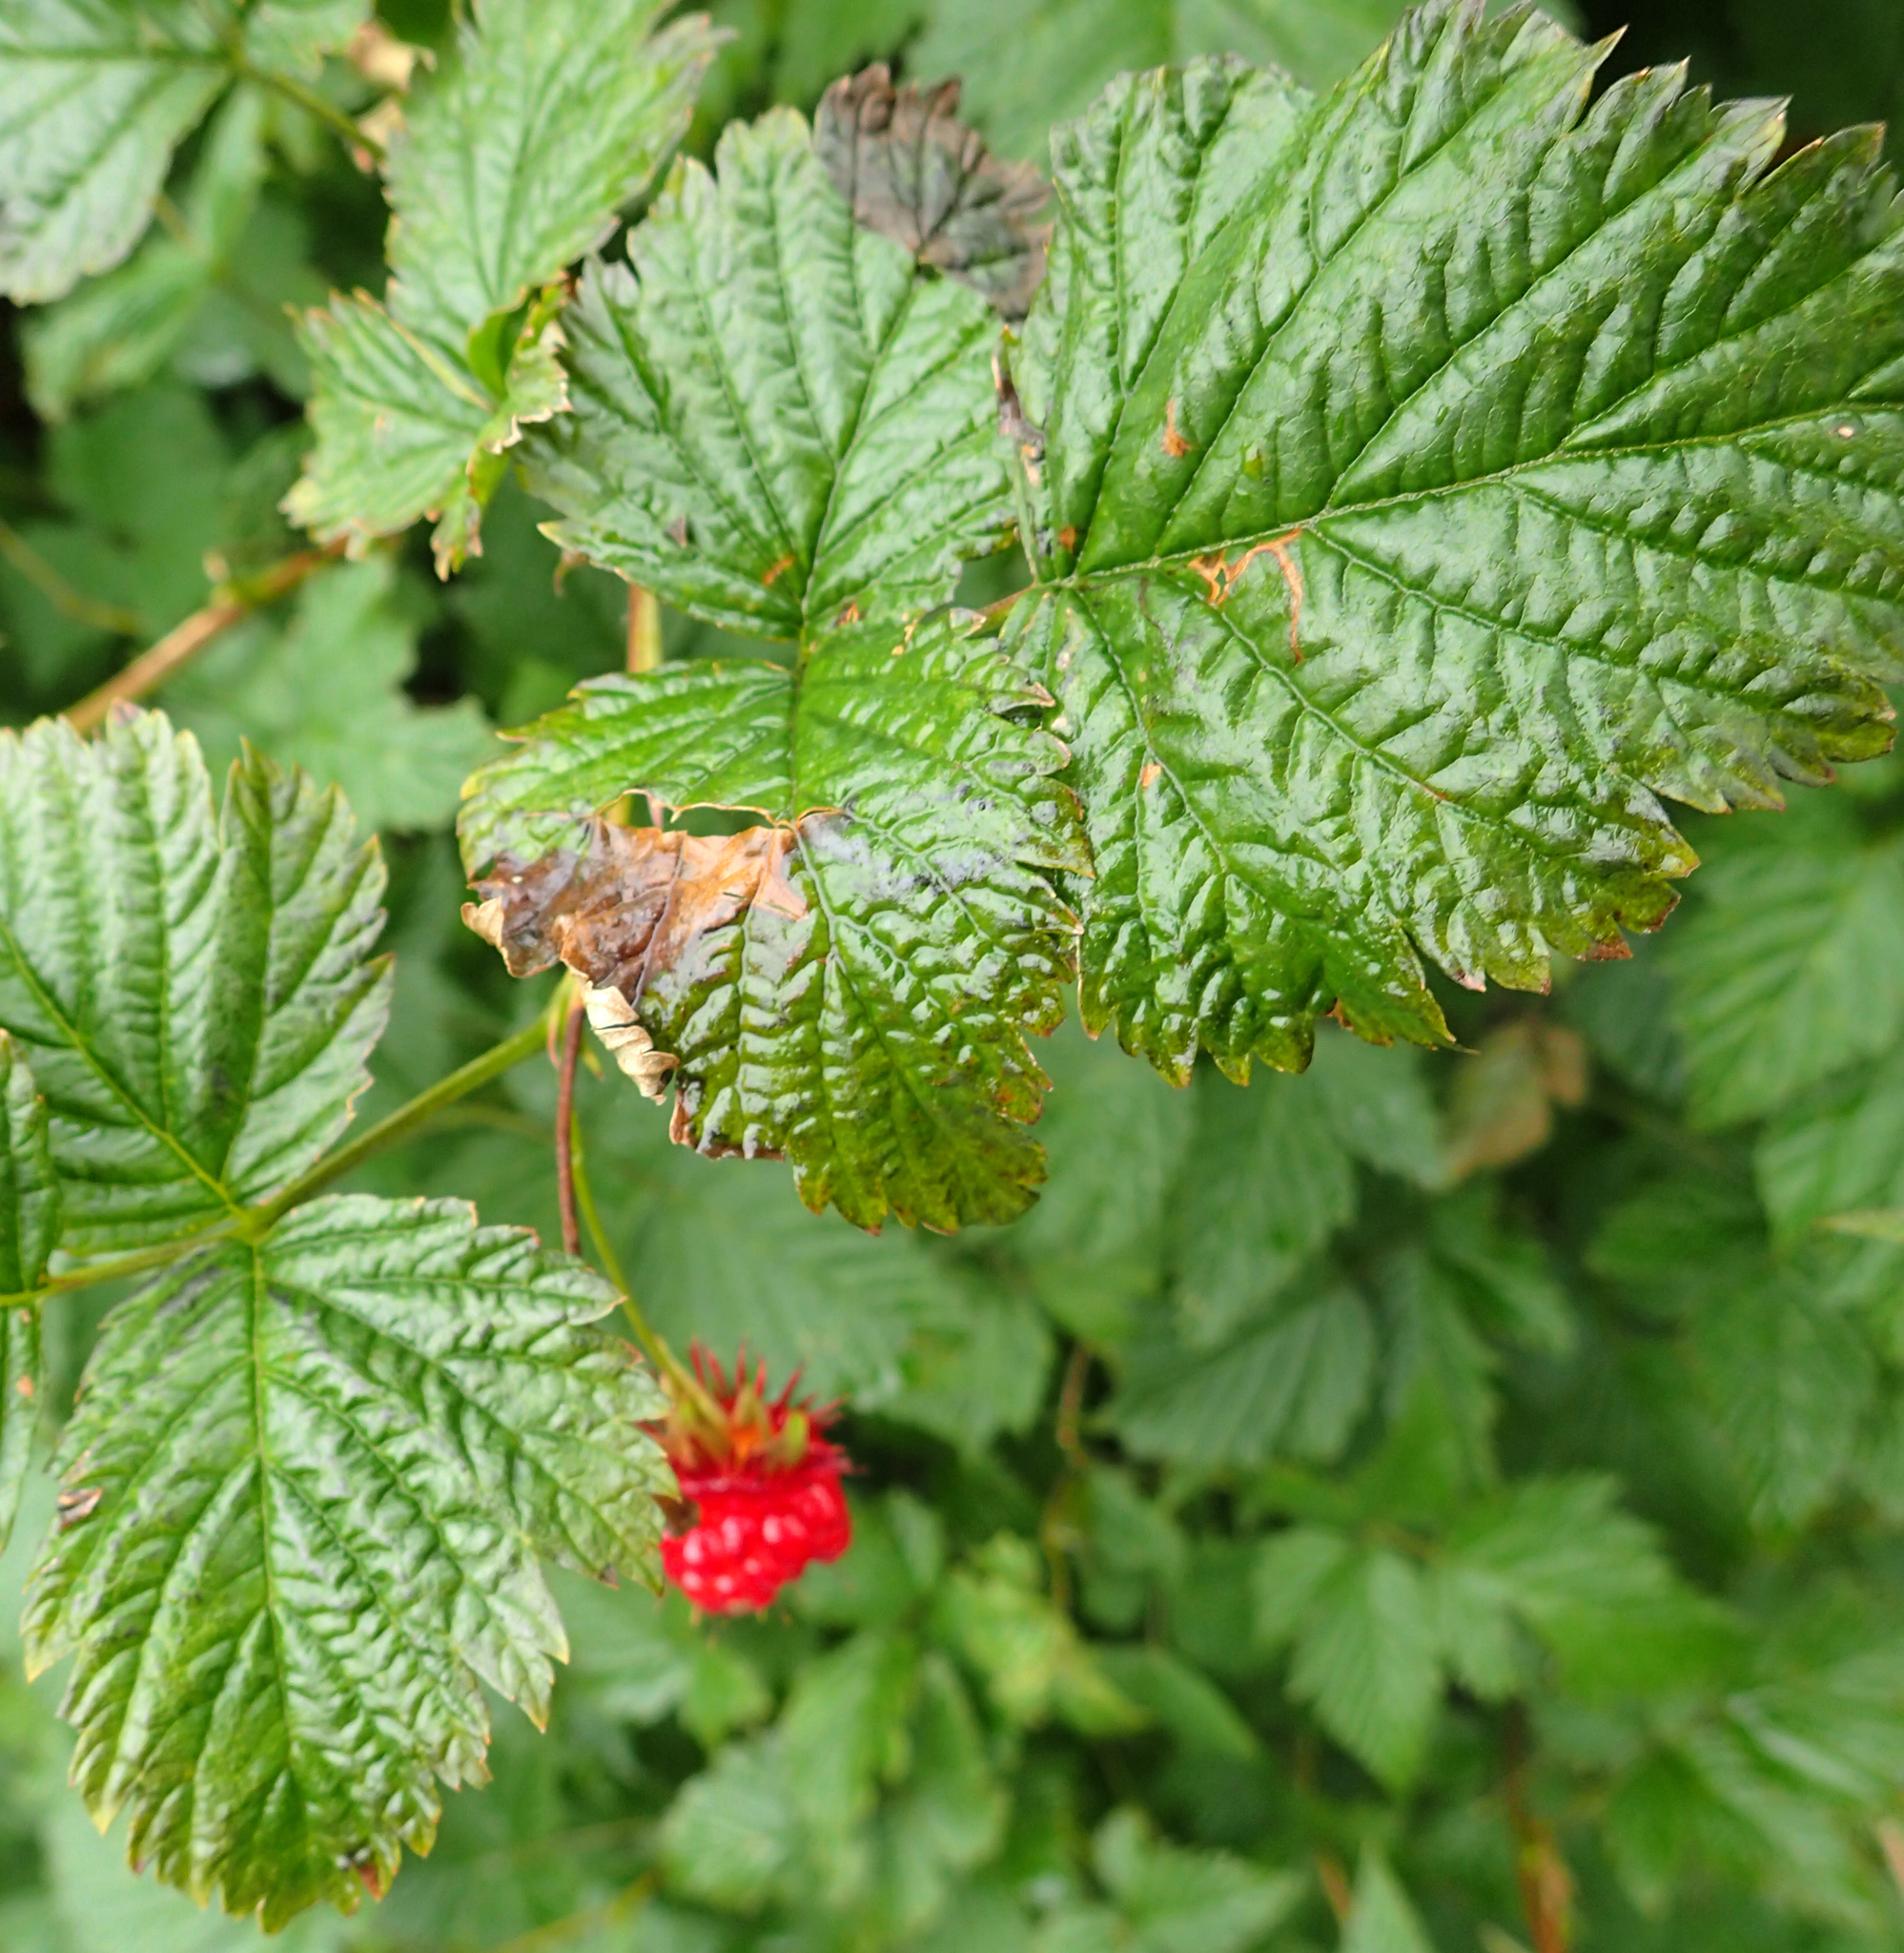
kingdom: Plantae
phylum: Tracheophyta
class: Magnoliopsida
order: Rosales
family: Rosaceae
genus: Rubus
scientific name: Rubus spectabilis
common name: Salmonberry
